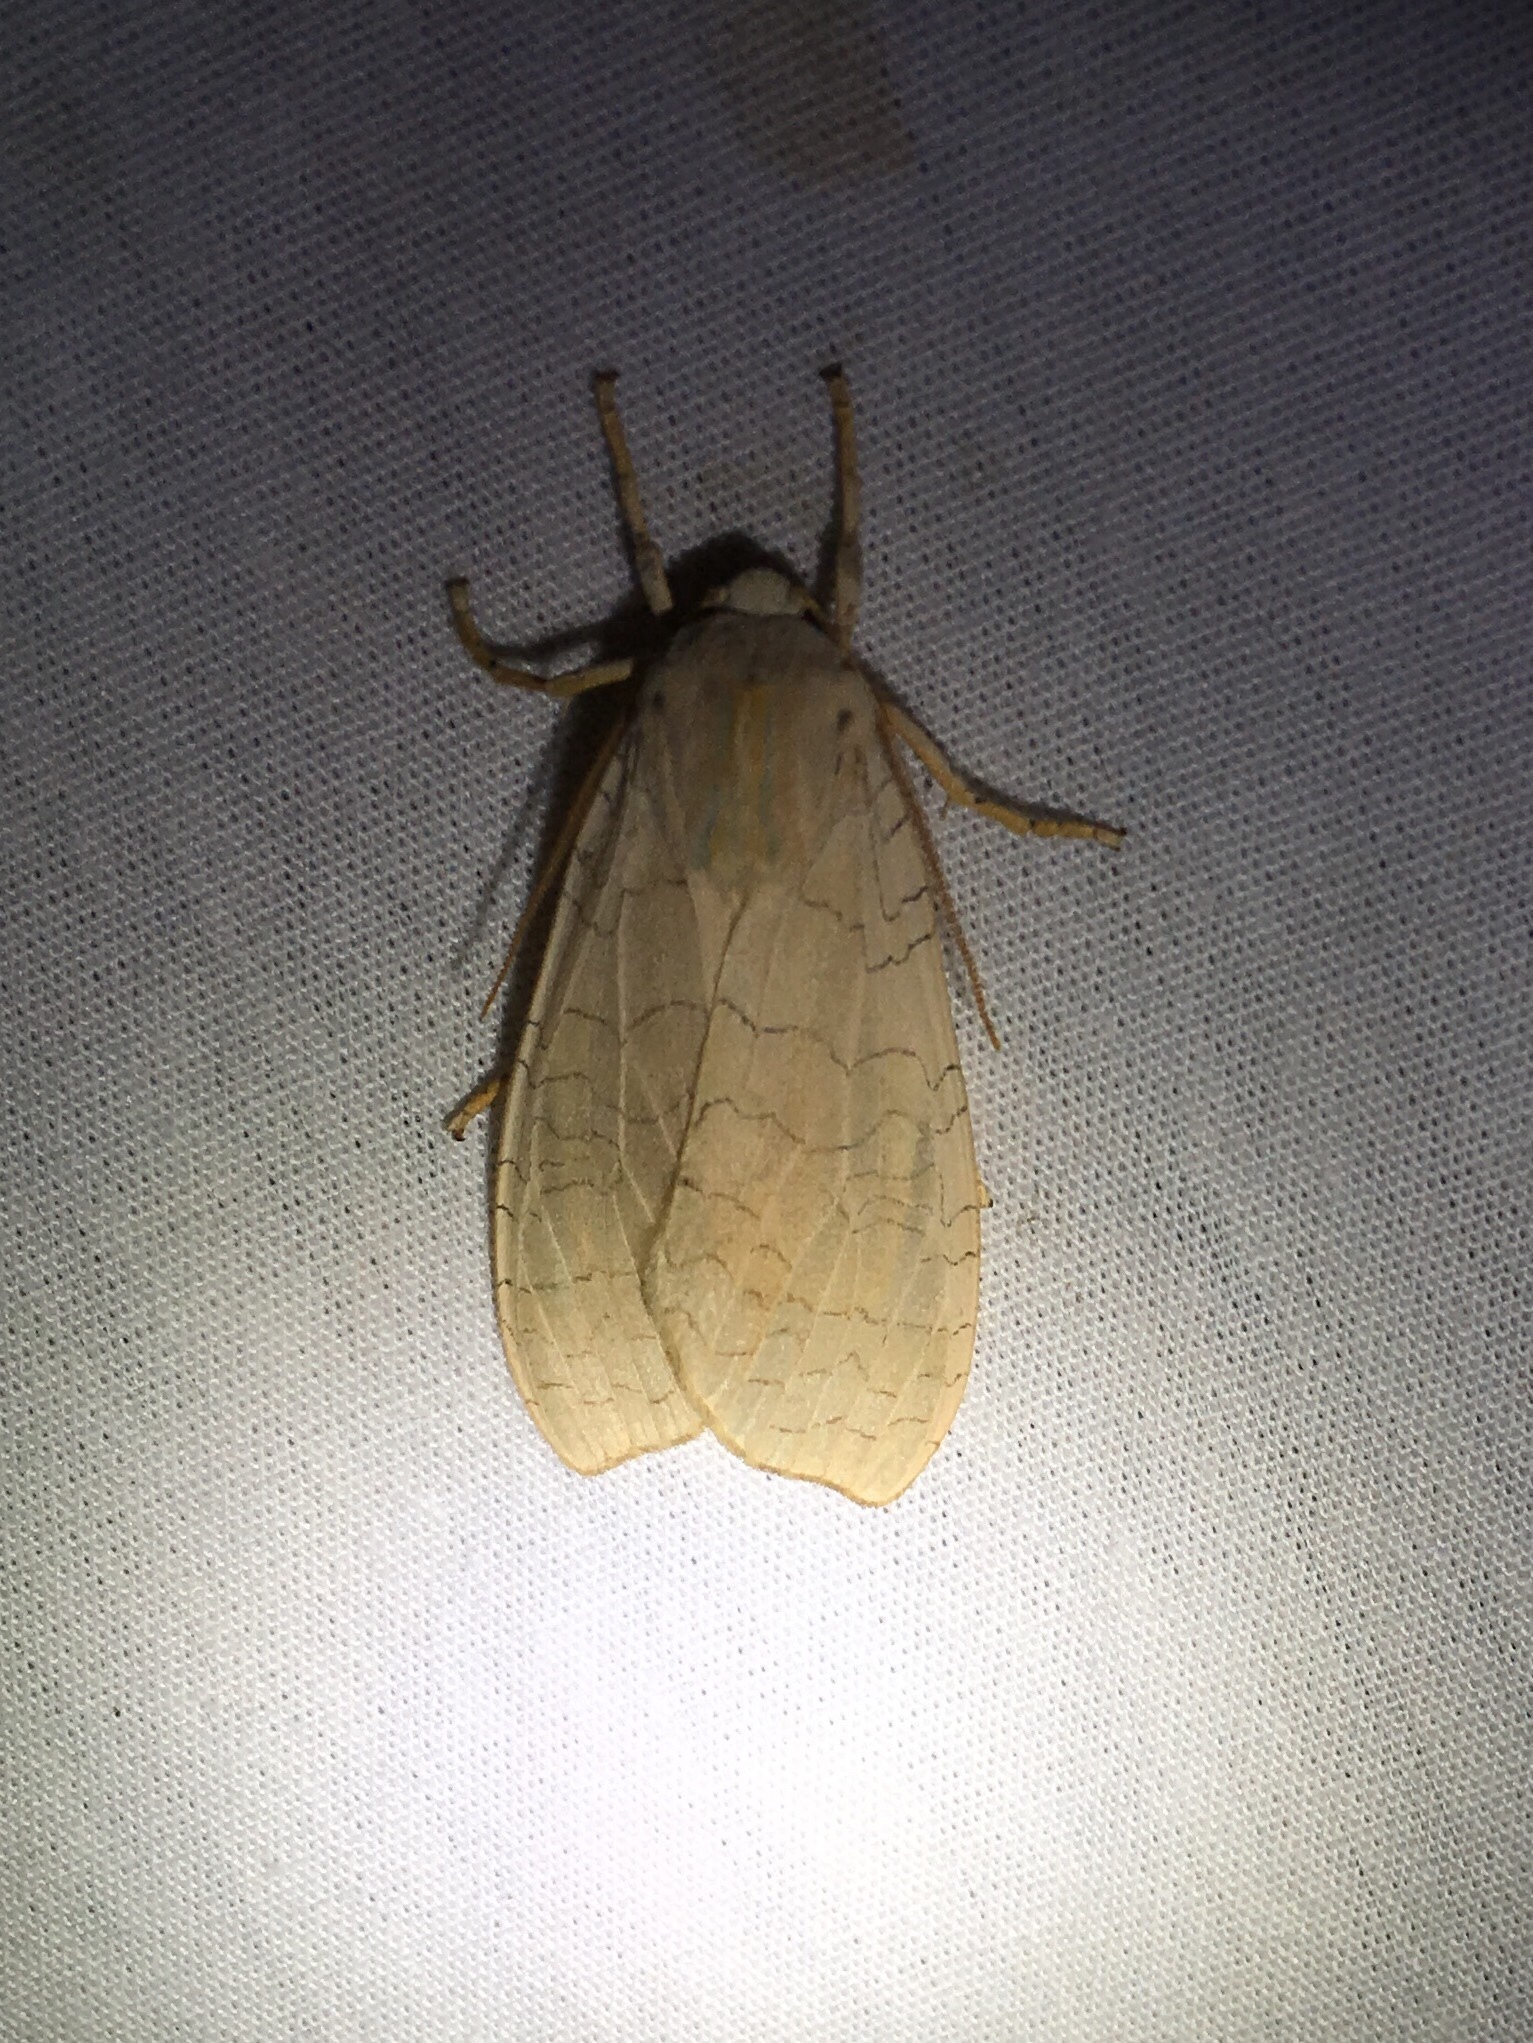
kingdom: Animalia
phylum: Arthropoda
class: Insecta
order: Lepidoptera
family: Erebidae
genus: Halysidota
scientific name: Halysidota tessellaris
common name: Banded tussock moth
